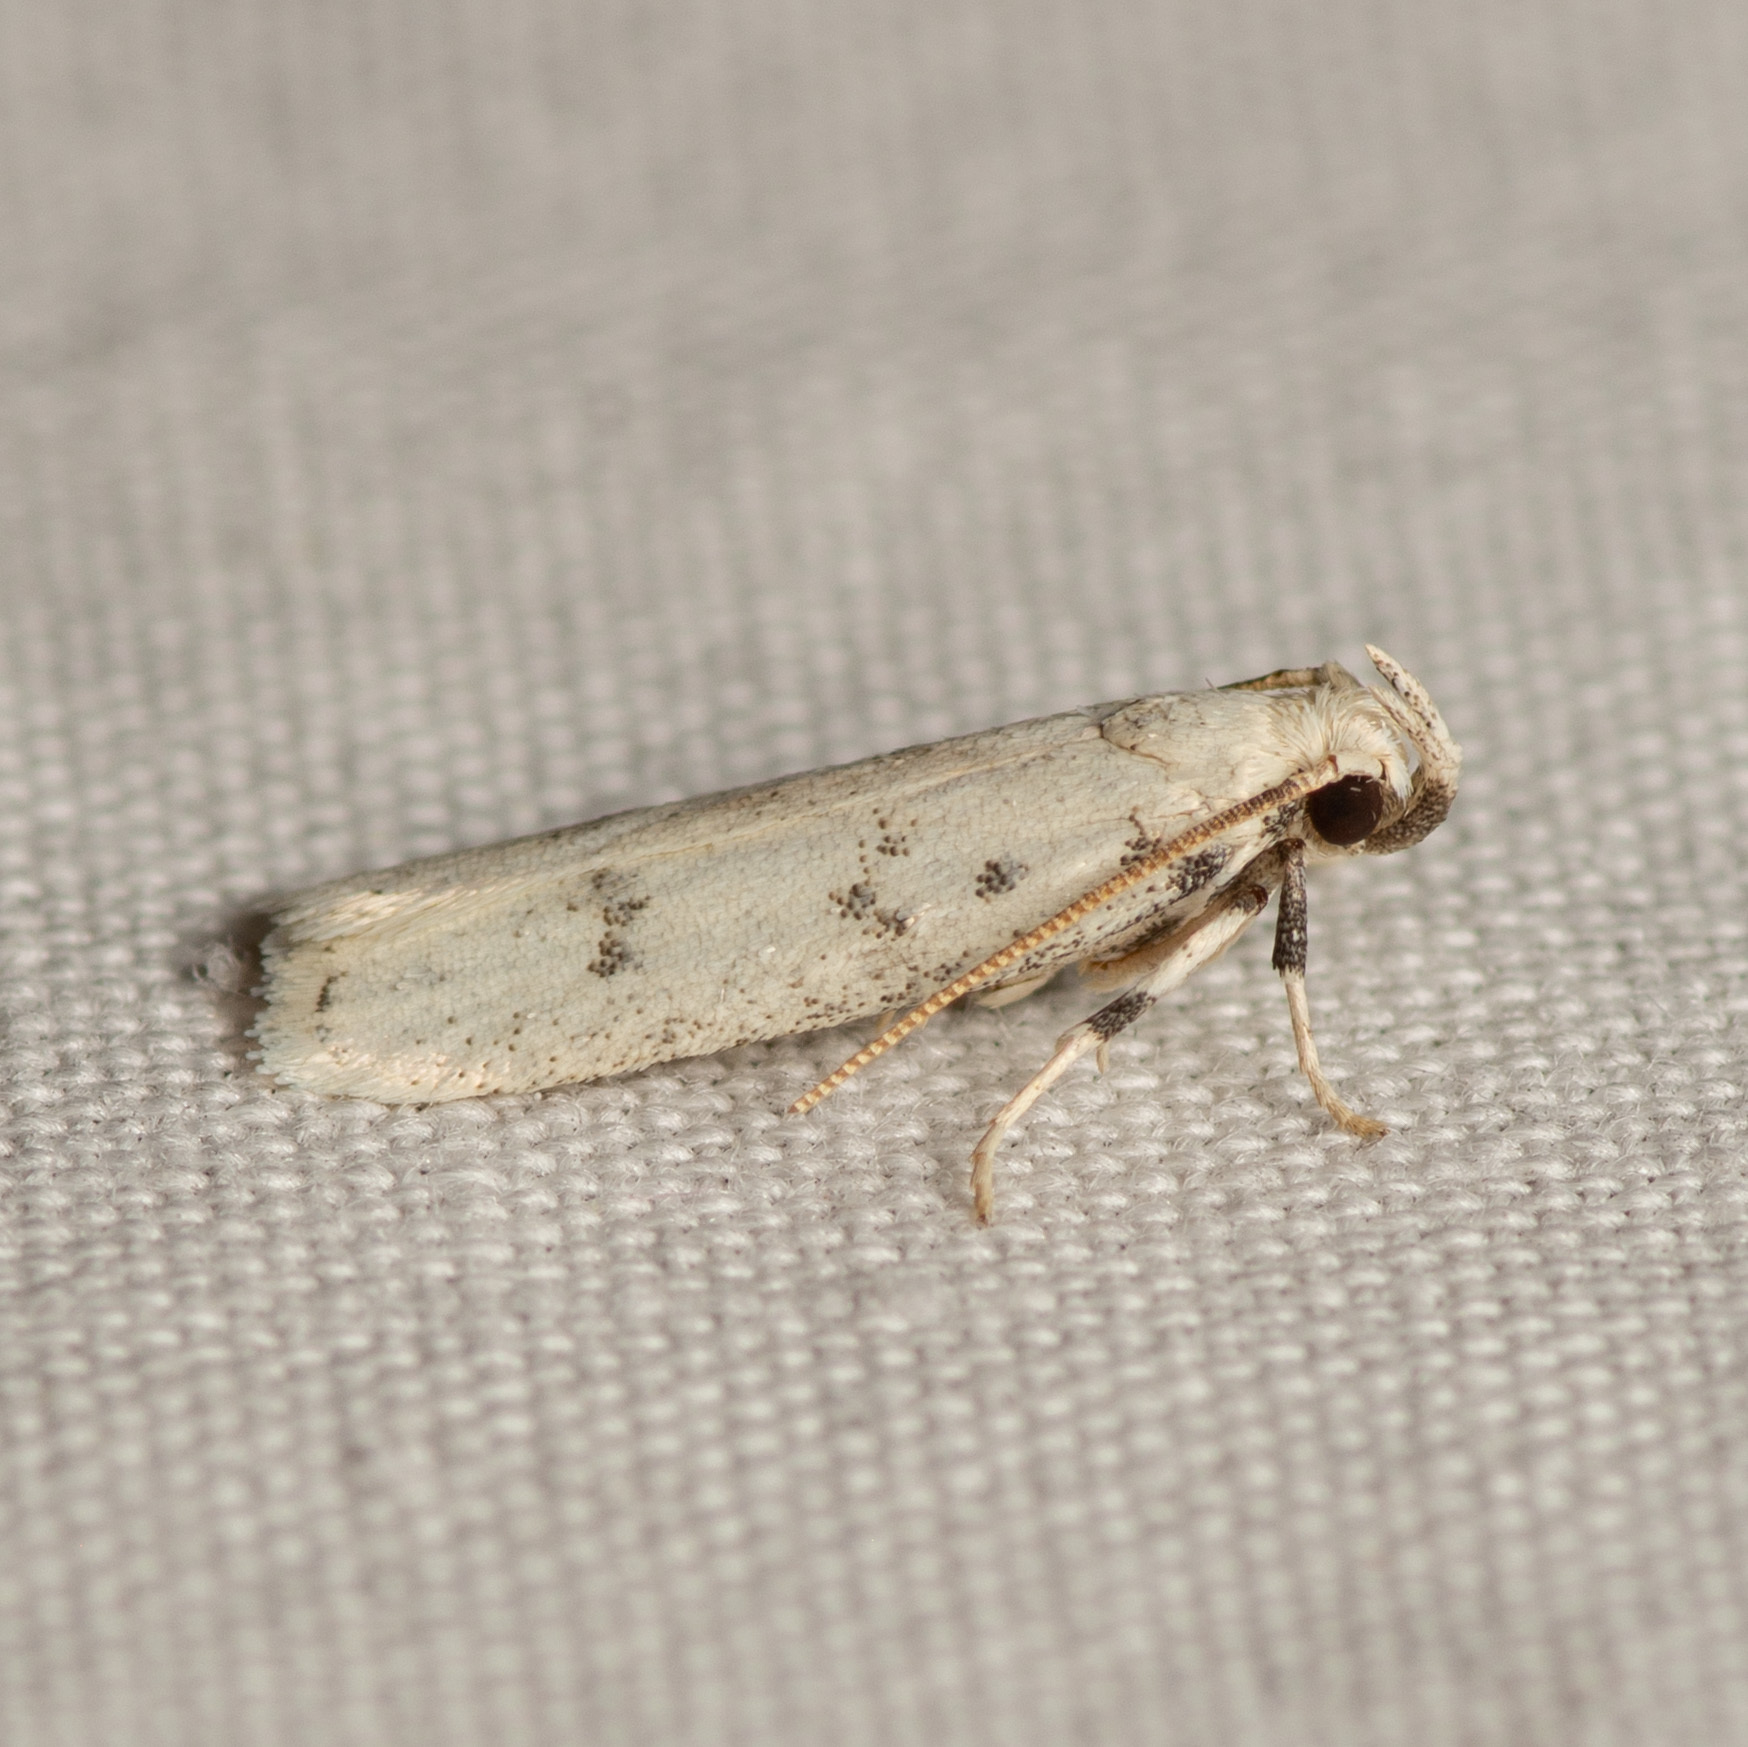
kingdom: Animalia
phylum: Arthropoda
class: Insecta
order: Lepidoptera
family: Autostichidae
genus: Glyphidocera
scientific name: Glyphidocera lactiflosella
